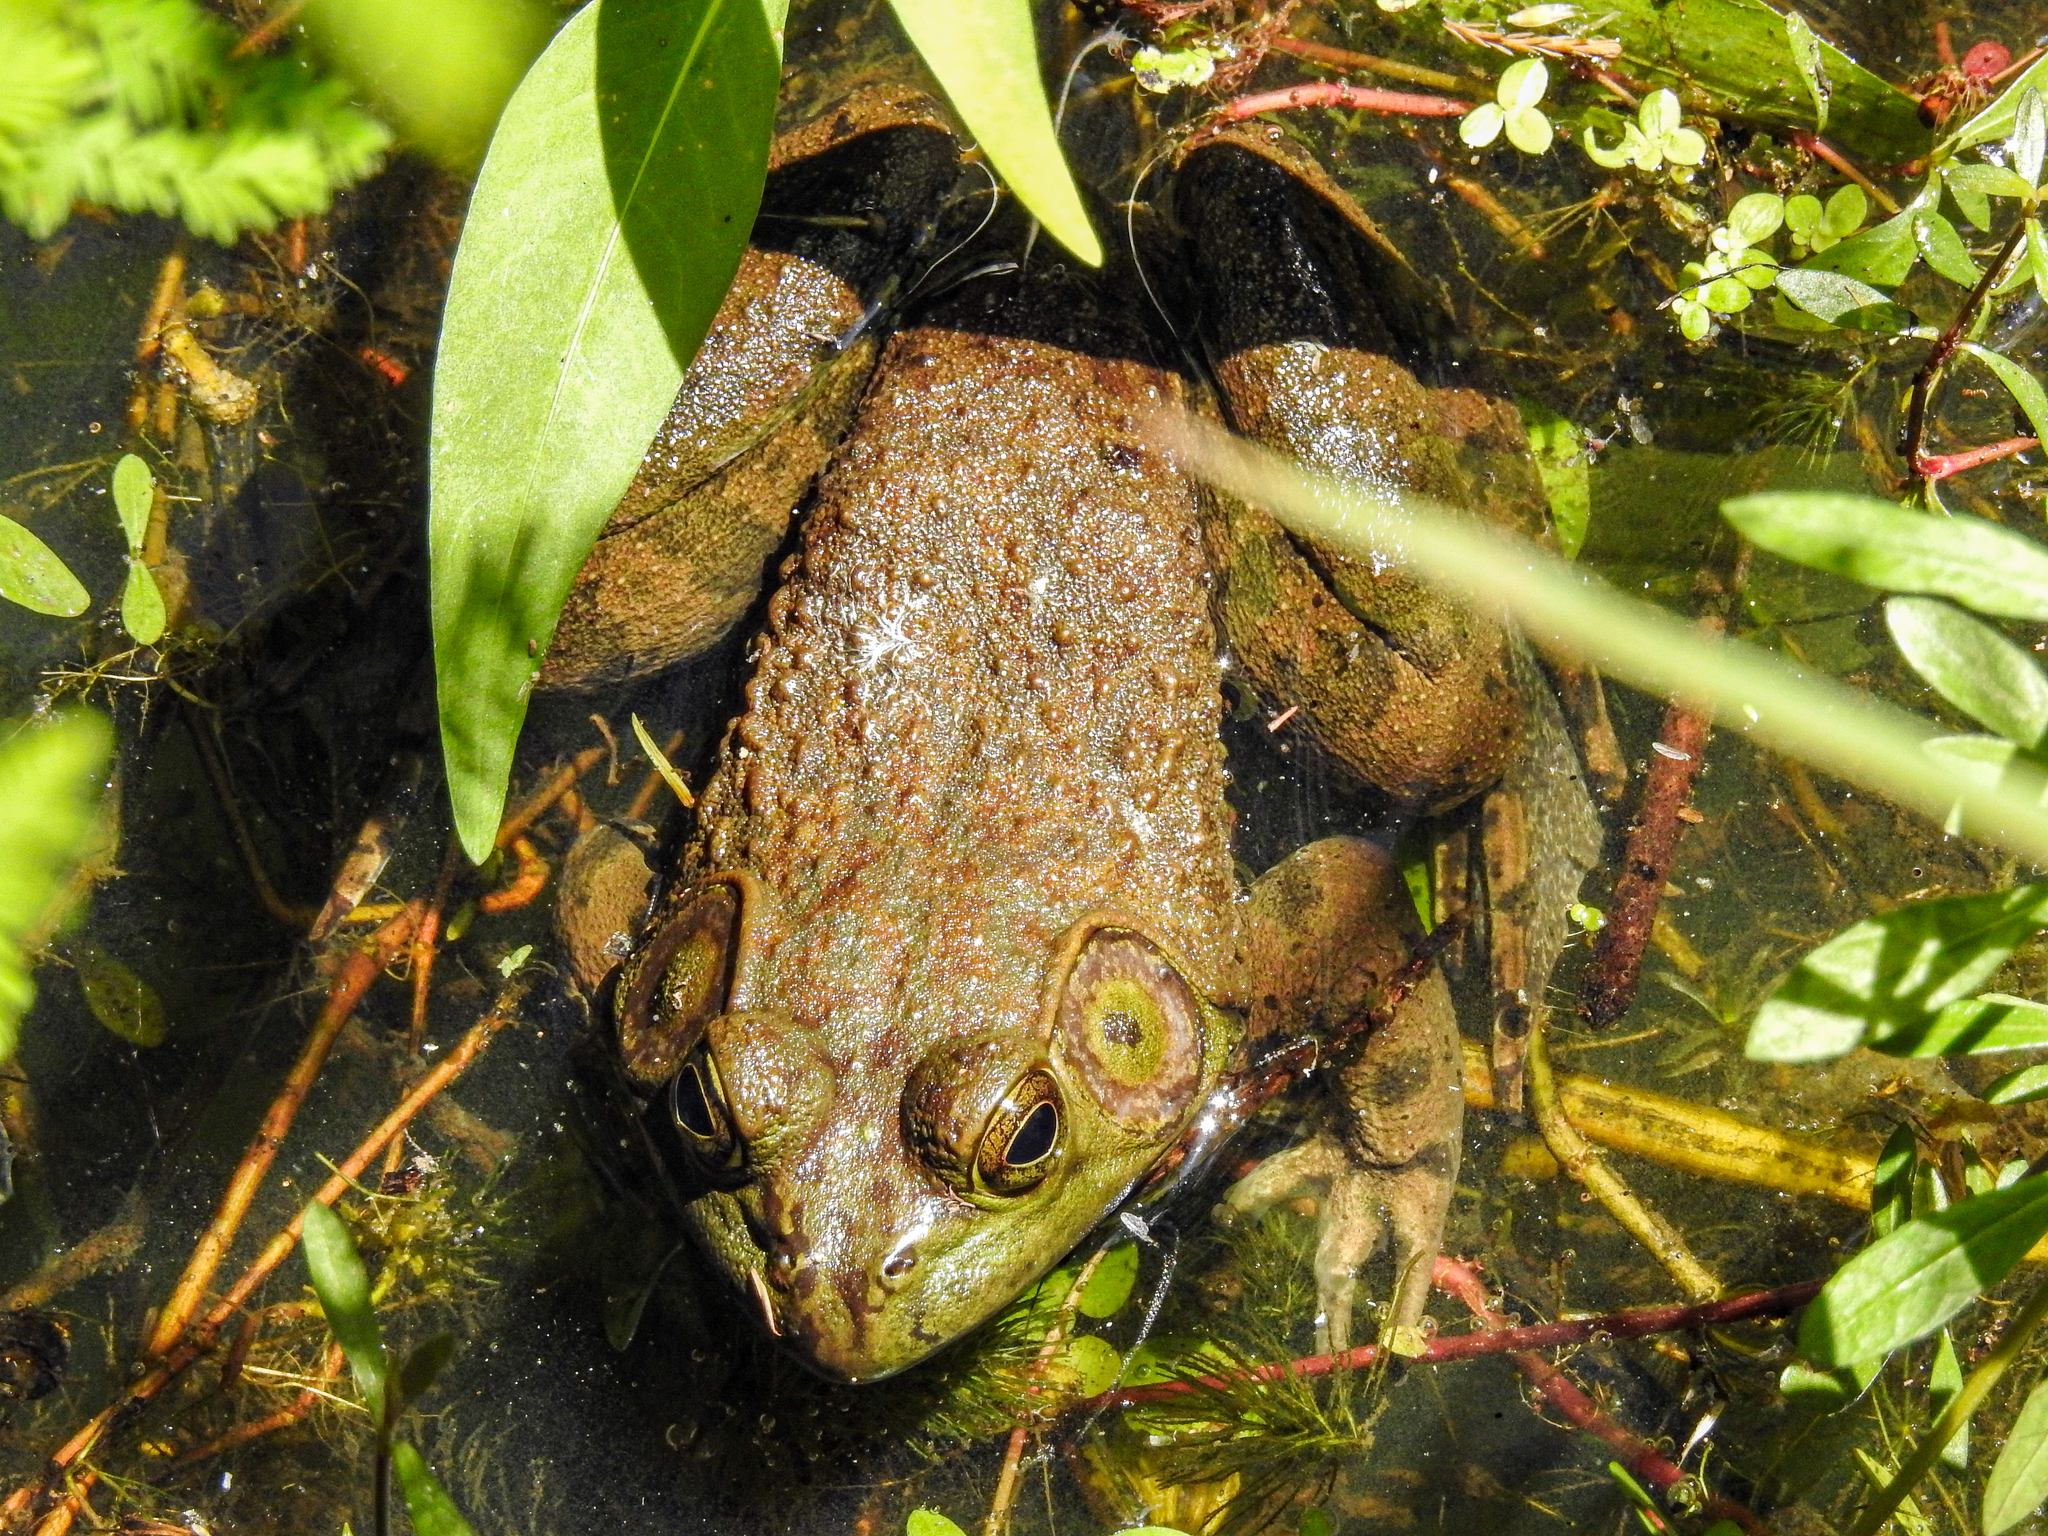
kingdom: Animalia
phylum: Chordata
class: Amphibia
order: Anura
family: Ranidae
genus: Lithobates
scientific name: Lithobates catesbeianus
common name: American bullfrog
